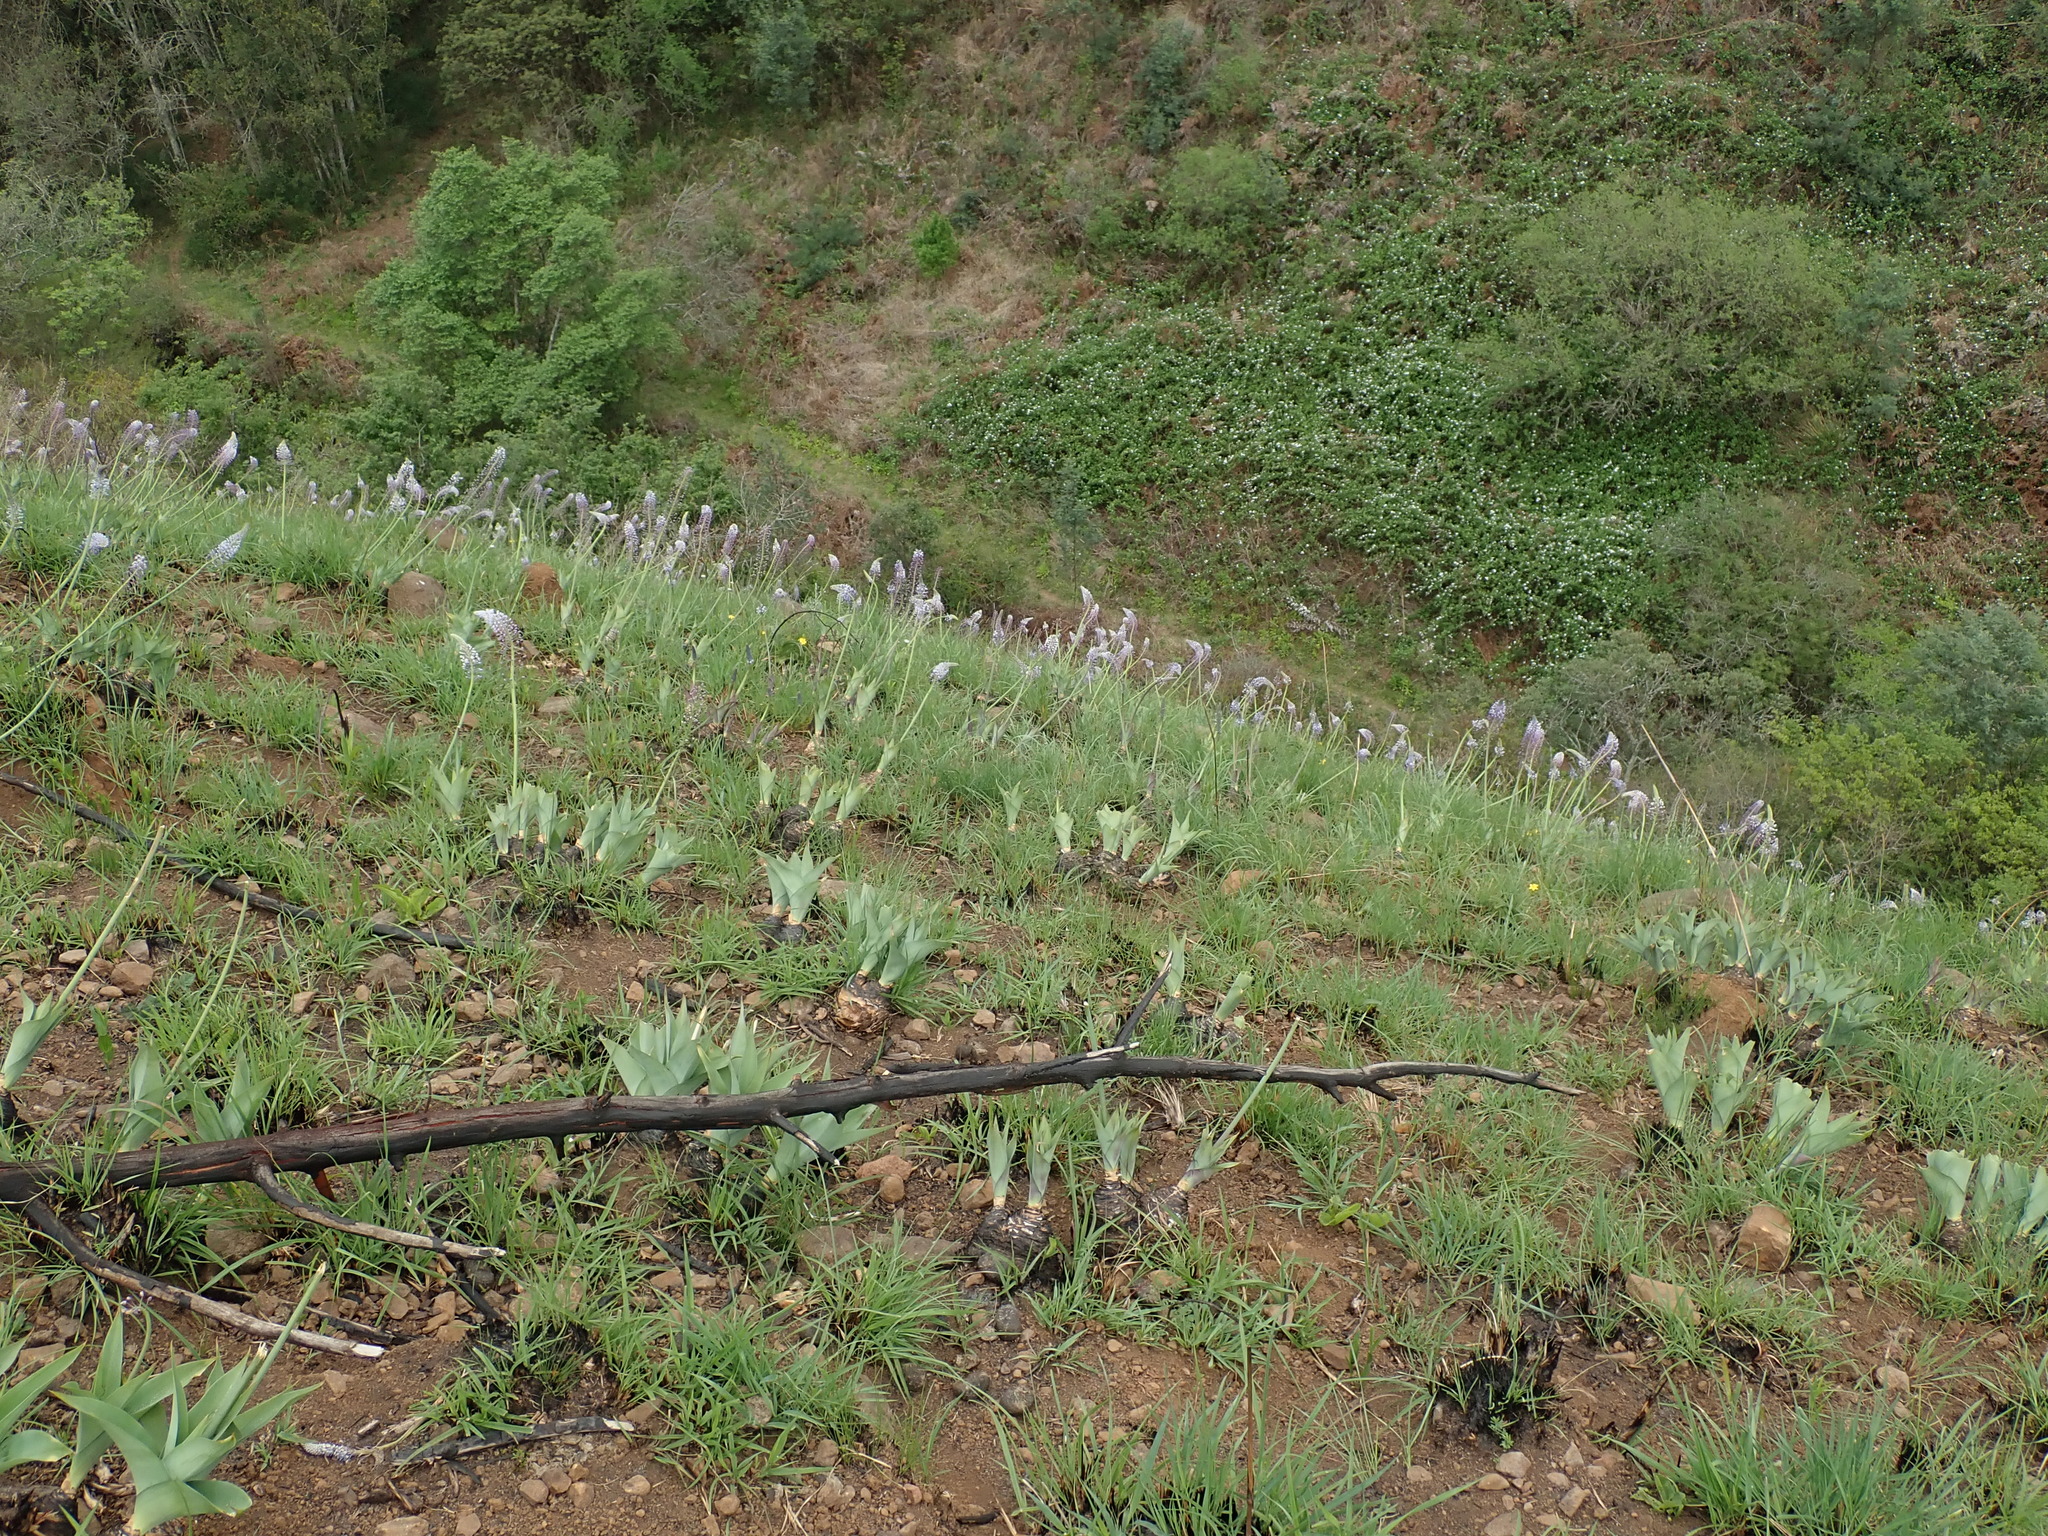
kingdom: Plantae
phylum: Tracheophyta
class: Liliopsida
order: Asparagales
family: Asparagaceae
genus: Merwilla
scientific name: Merwilla plumbea
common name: Blue-squill
